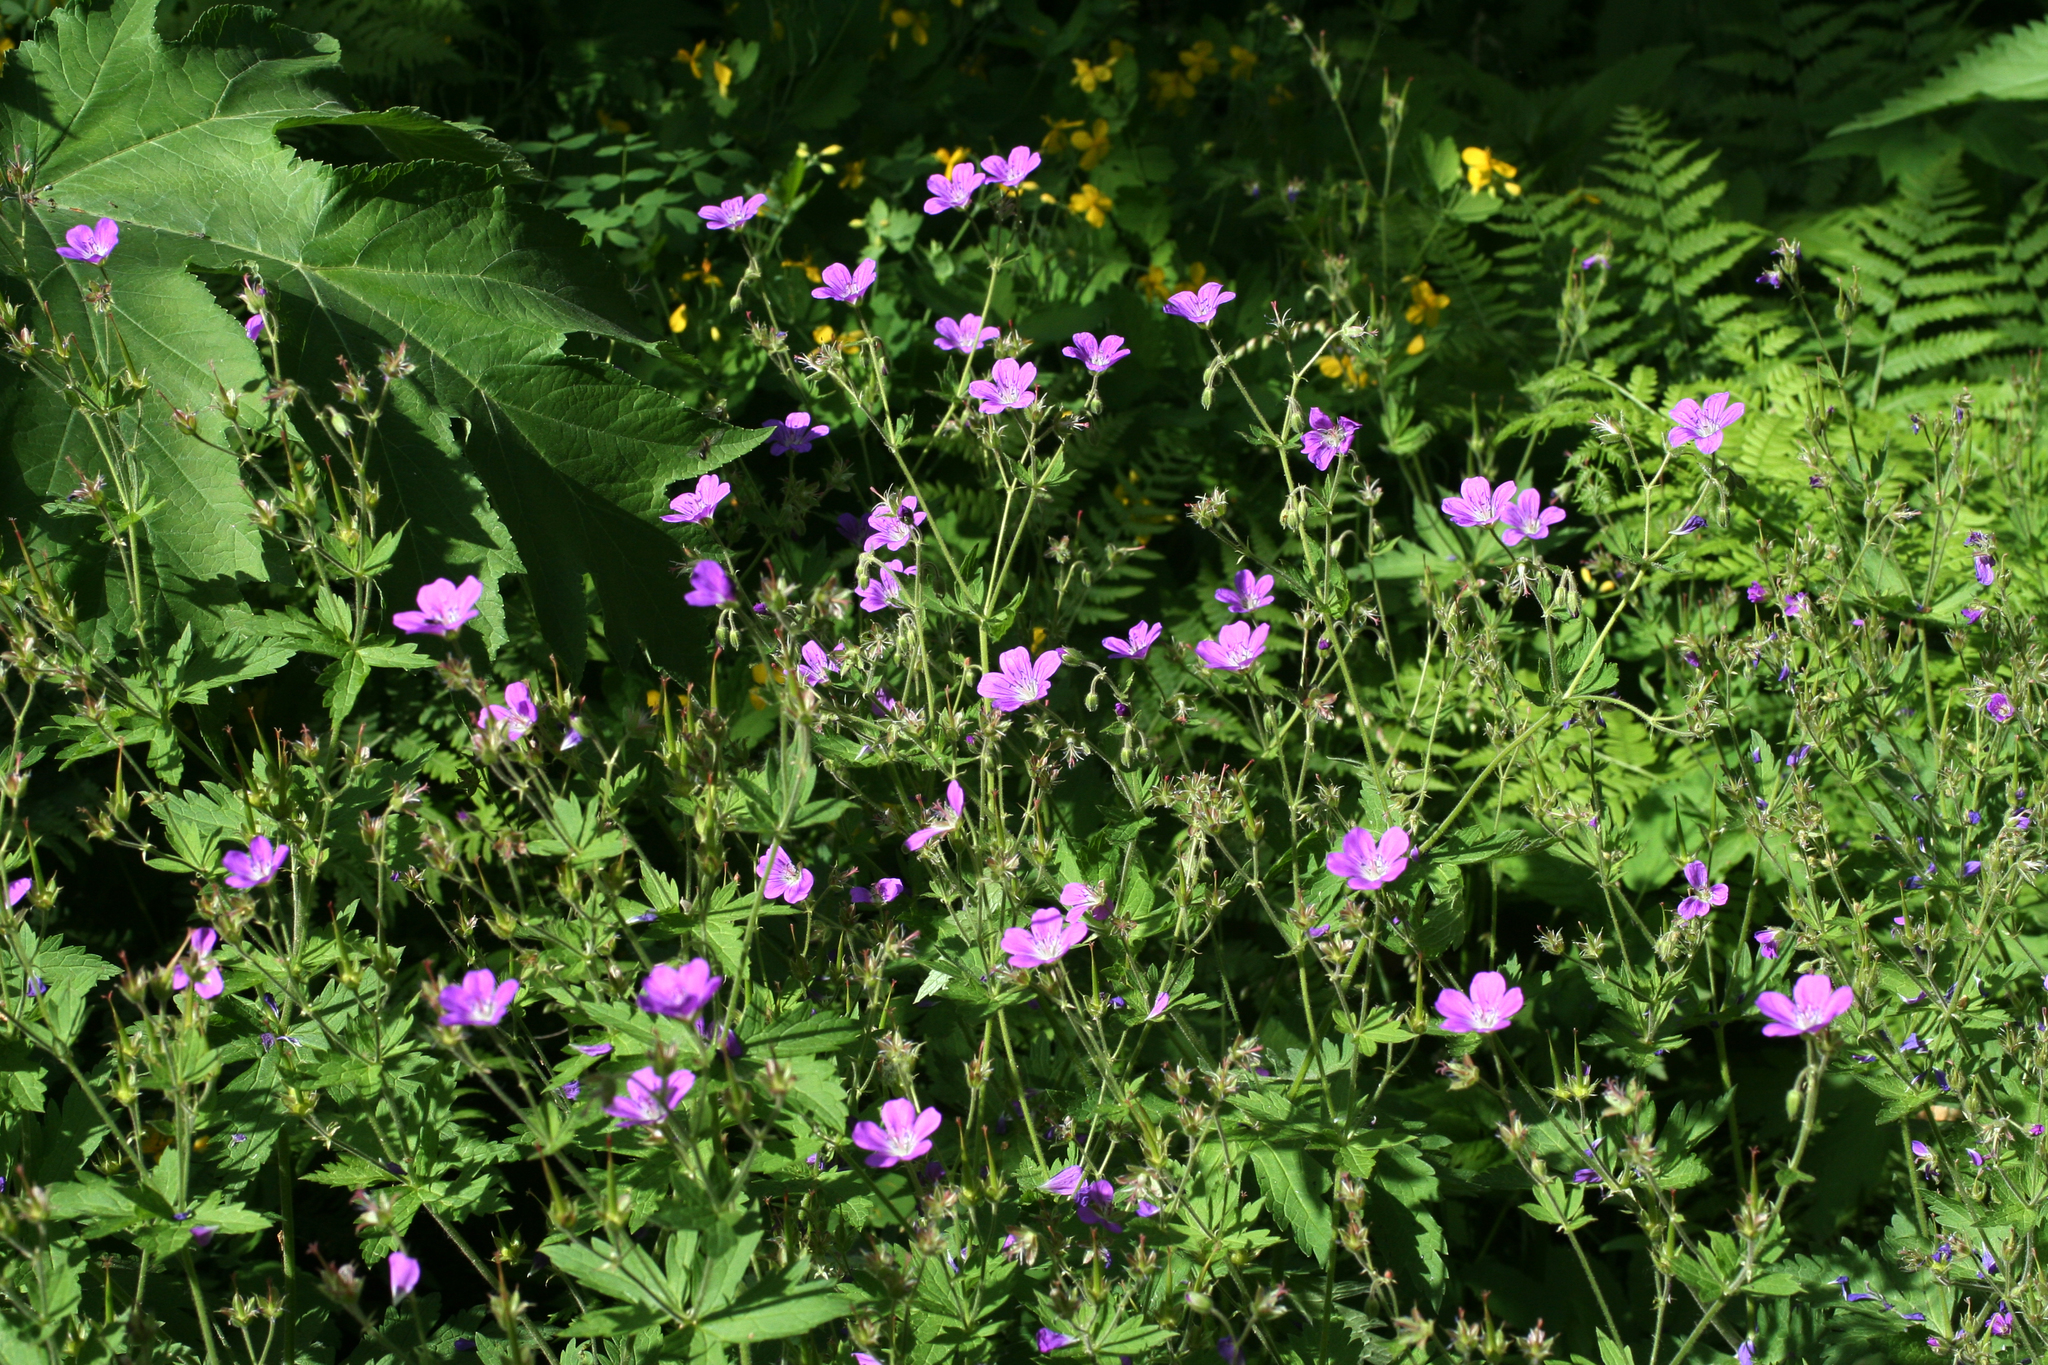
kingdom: Plantae
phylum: Tracheophyta
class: Magnoliopsida
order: Geraniales
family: Geraniaceae
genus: Geranium
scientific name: Geranium sylvaticum
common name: Wood crane's-bill
